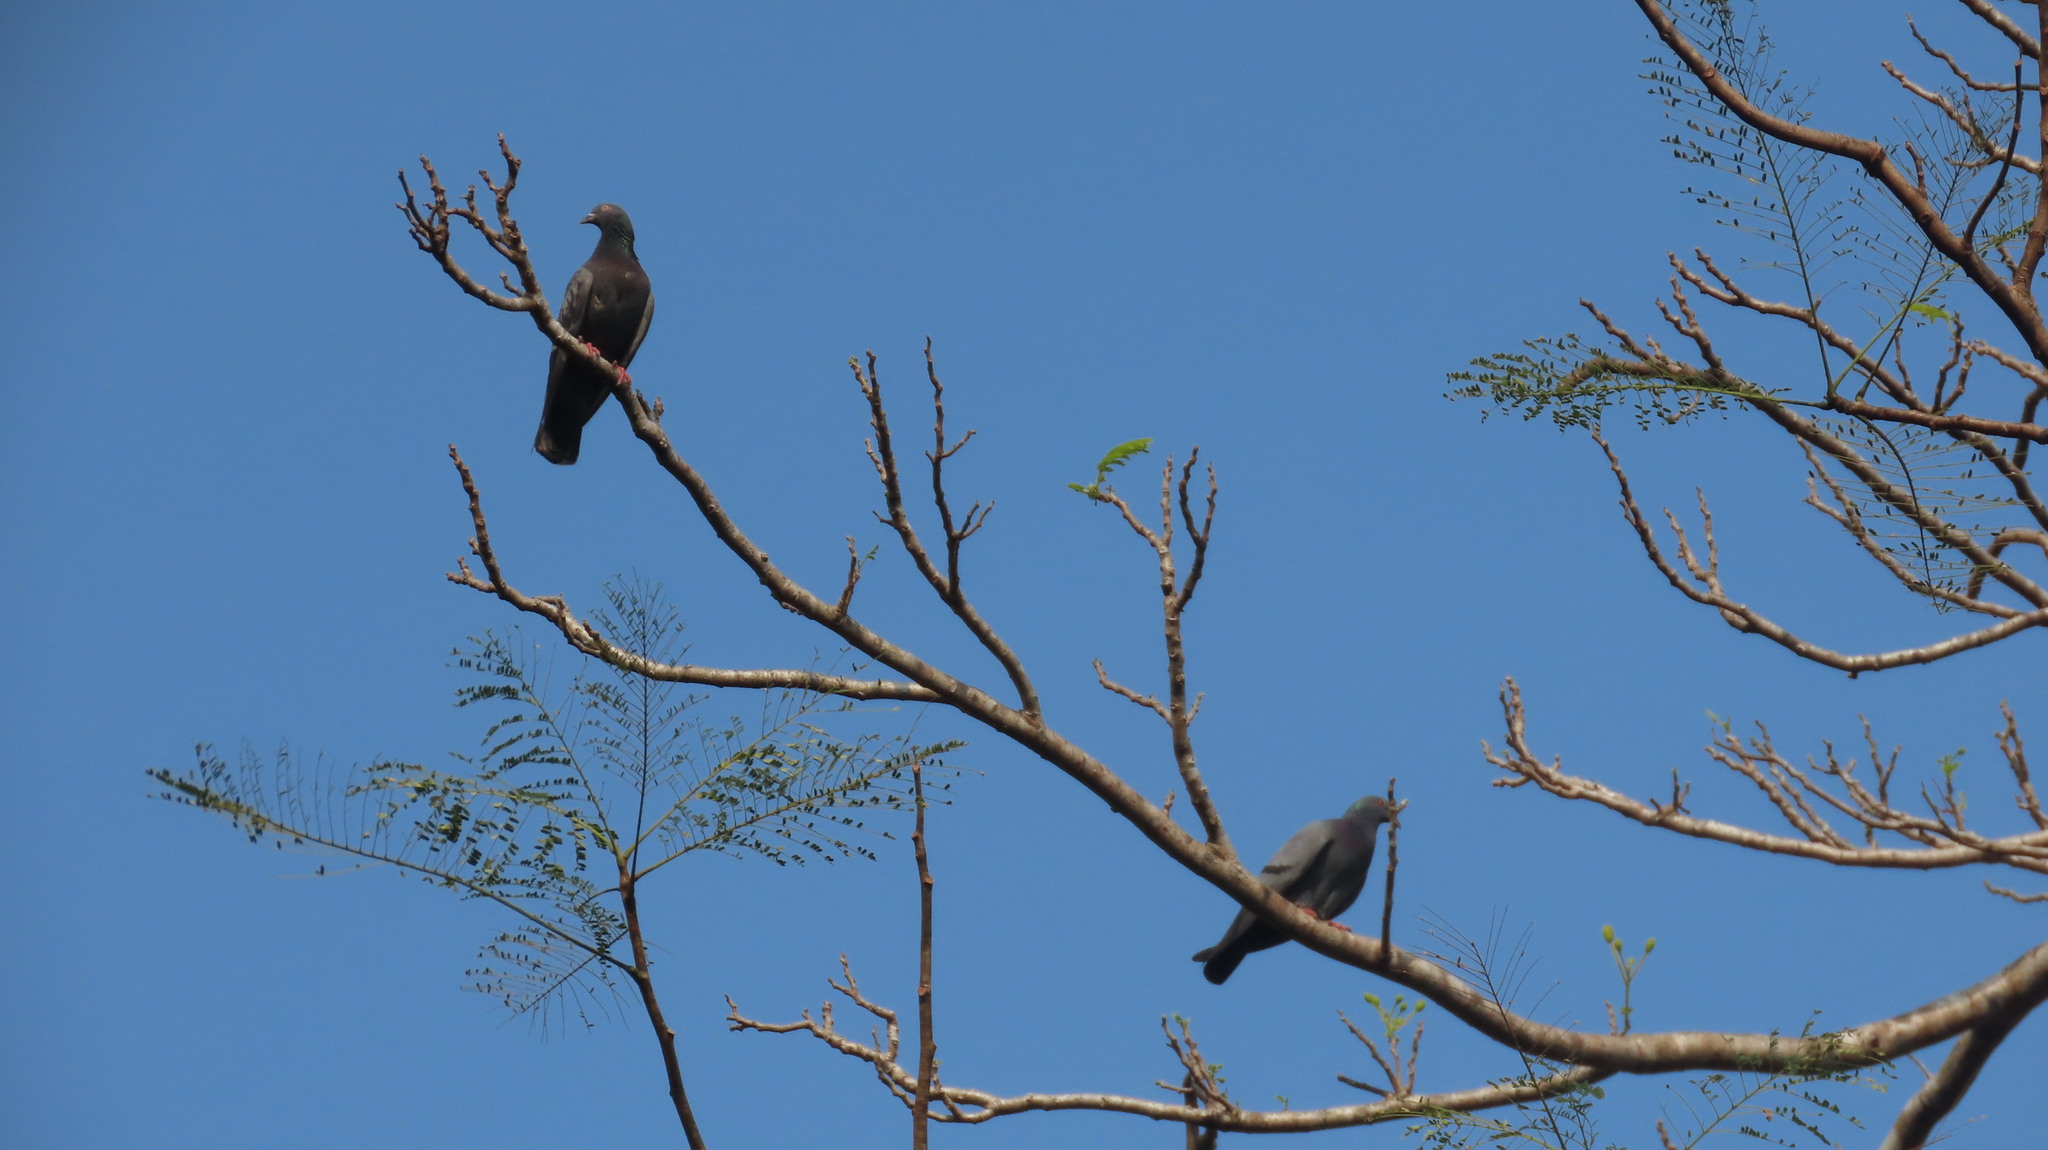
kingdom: Animalia
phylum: Chordata
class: Aves
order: Columbiformes
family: Columbidae
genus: Columba
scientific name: Columba livia
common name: Rock pigeon
